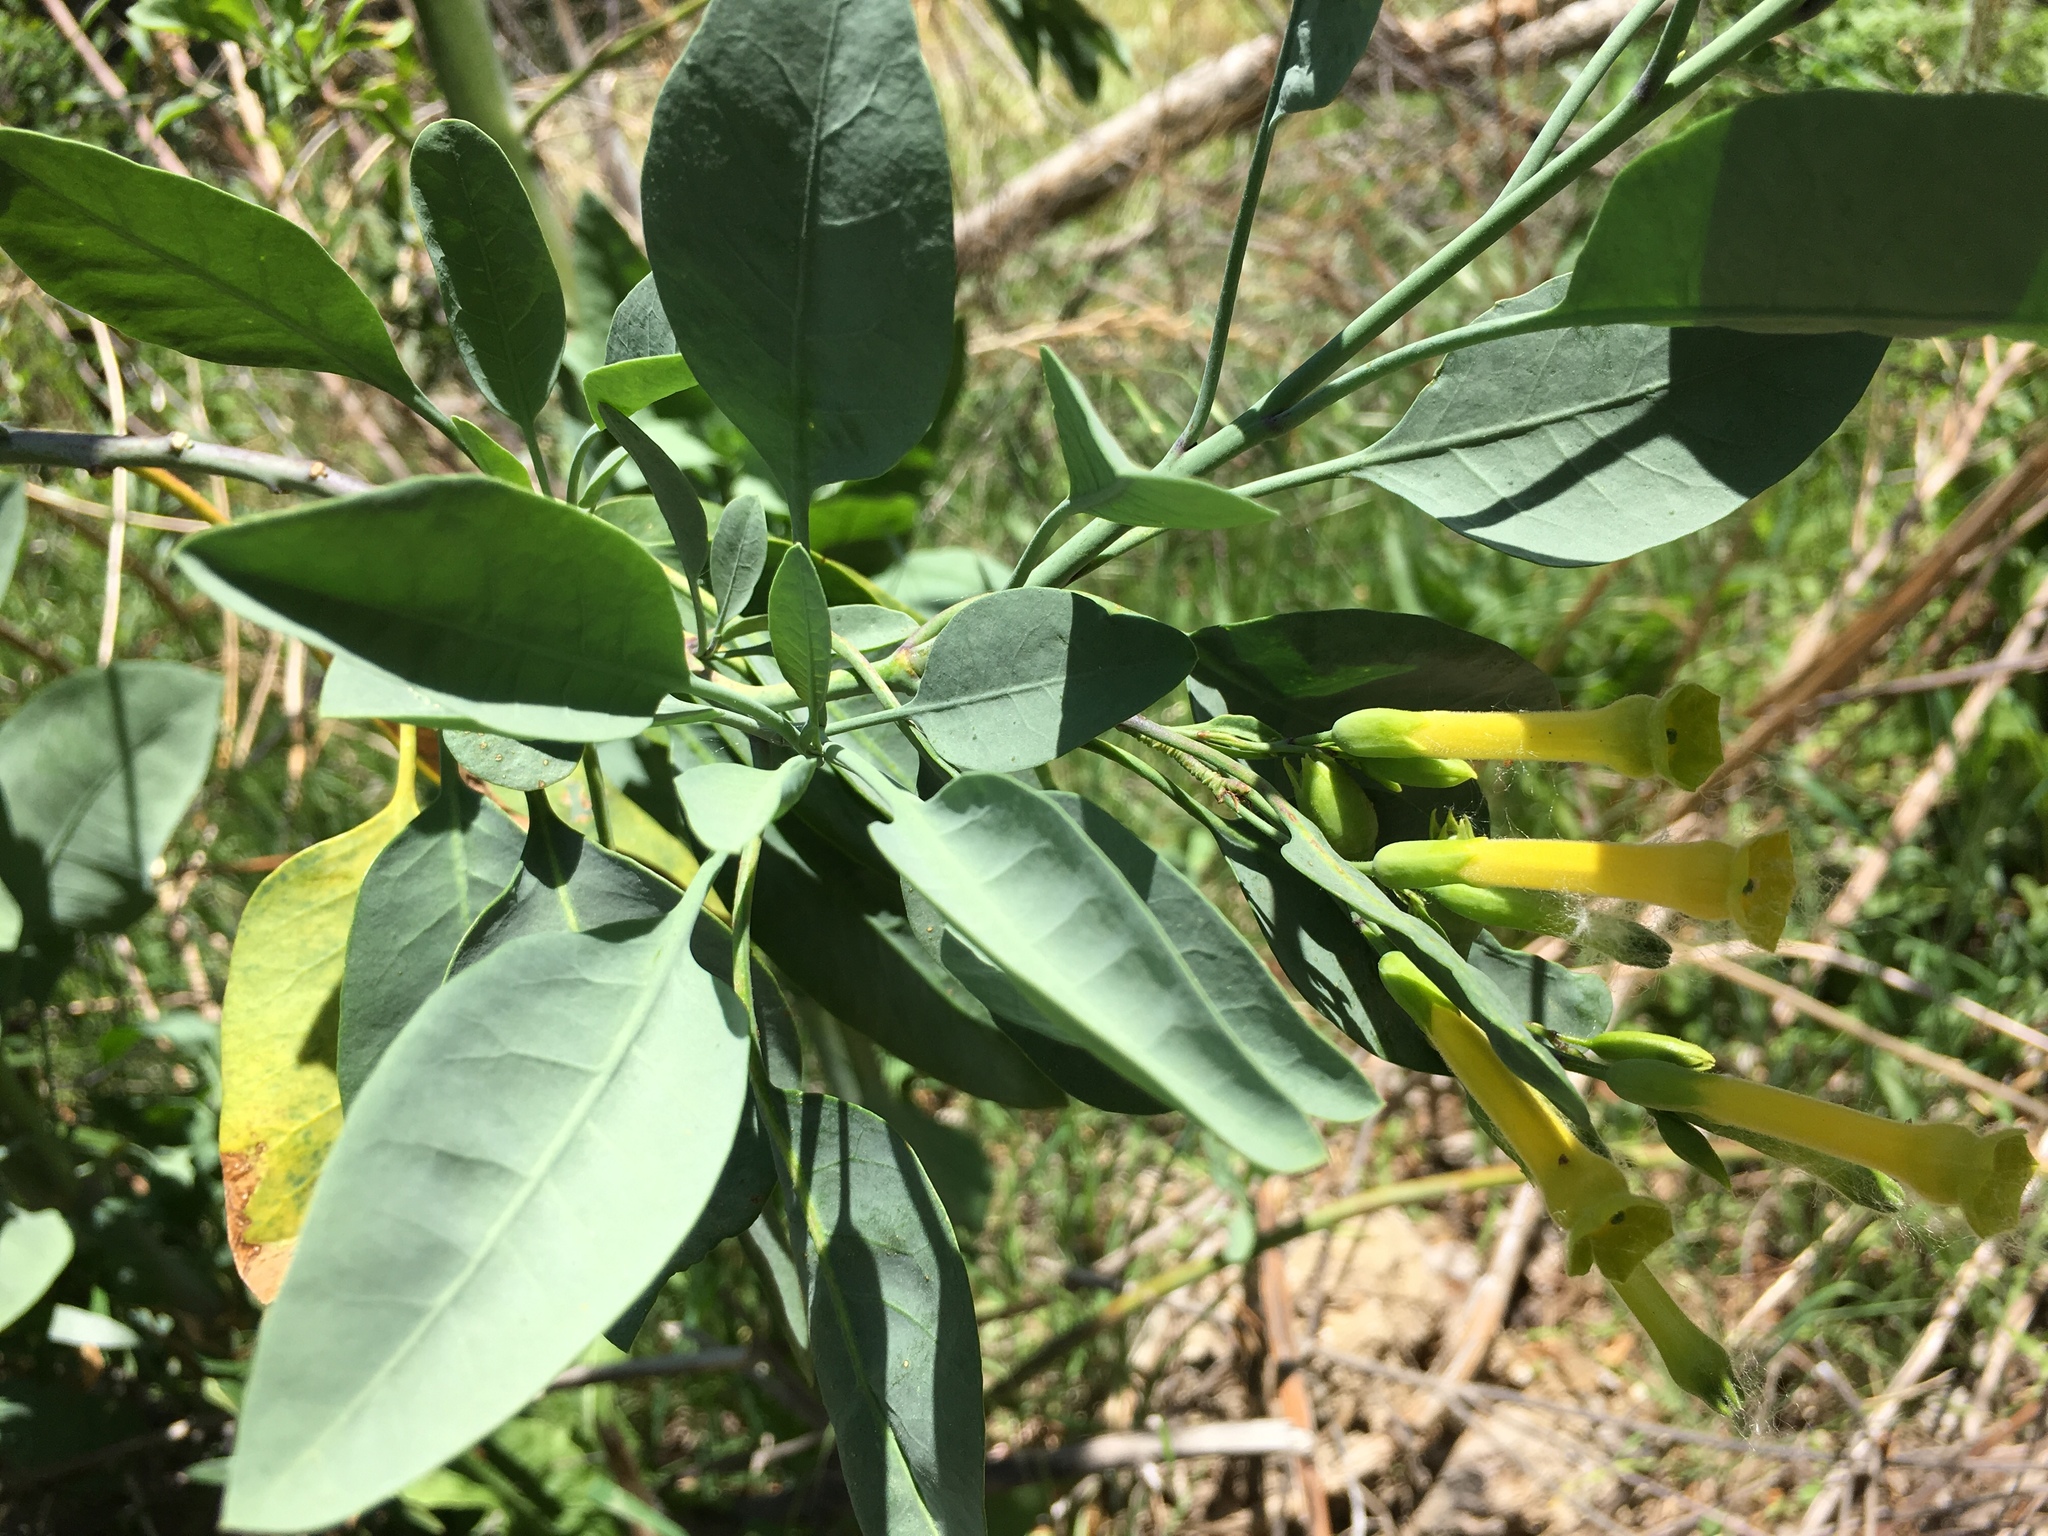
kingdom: Plantae
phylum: Tracheophyta
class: Magnoliopsida
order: Solanales
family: Solanaceae
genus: Nicotiana
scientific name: Nicotiana glauca
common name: Tree tobacco
